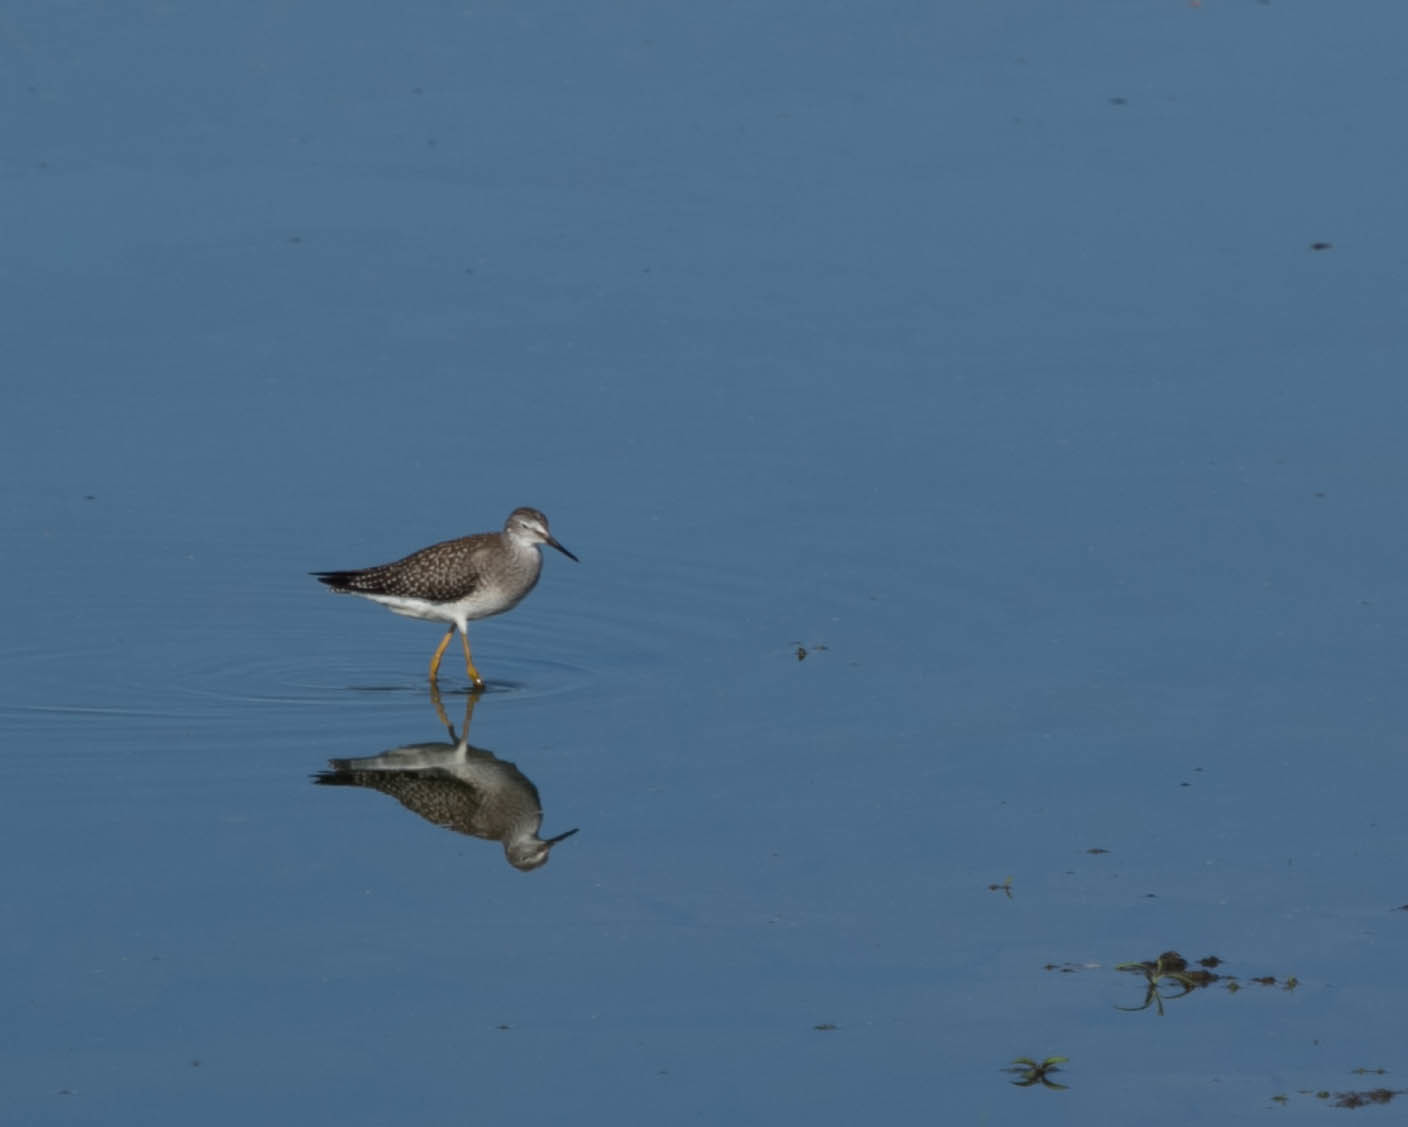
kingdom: Animalia
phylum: Chordata
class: Aves
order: Charadriiformes
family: Scolopacidae
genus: Tringa
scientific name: Tringa flavipes
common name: Lesser yellowlegs
